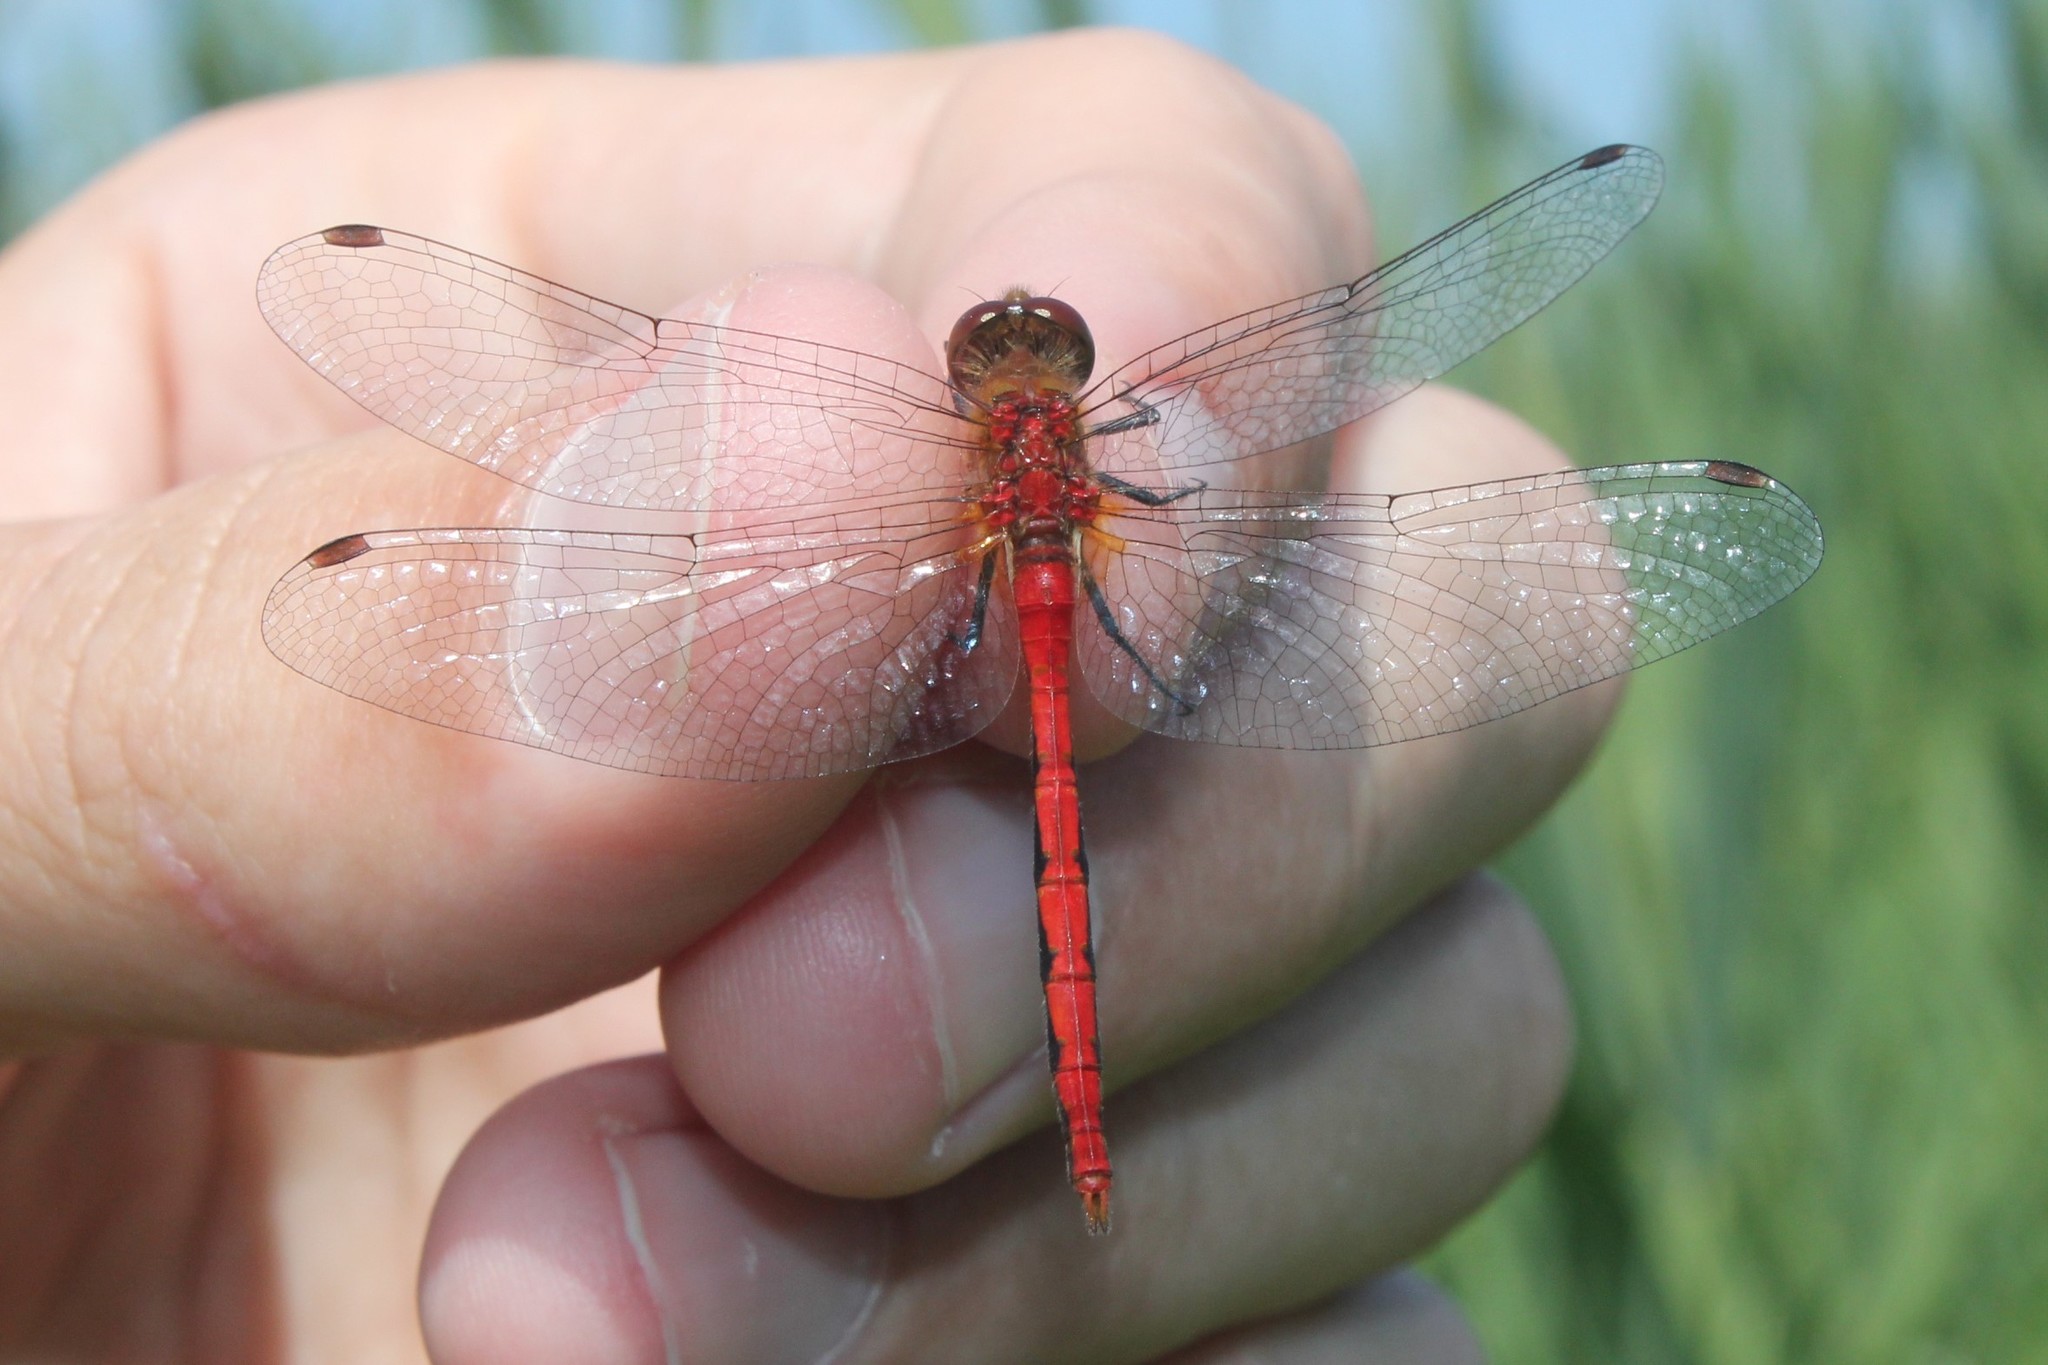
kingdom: Animalia
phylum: Arthropoda
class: Insecta
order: Odonata
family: Libellulidae
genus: Sympetrum
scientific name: Sympetrum obtrusum
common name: White-faced meadowhawk
